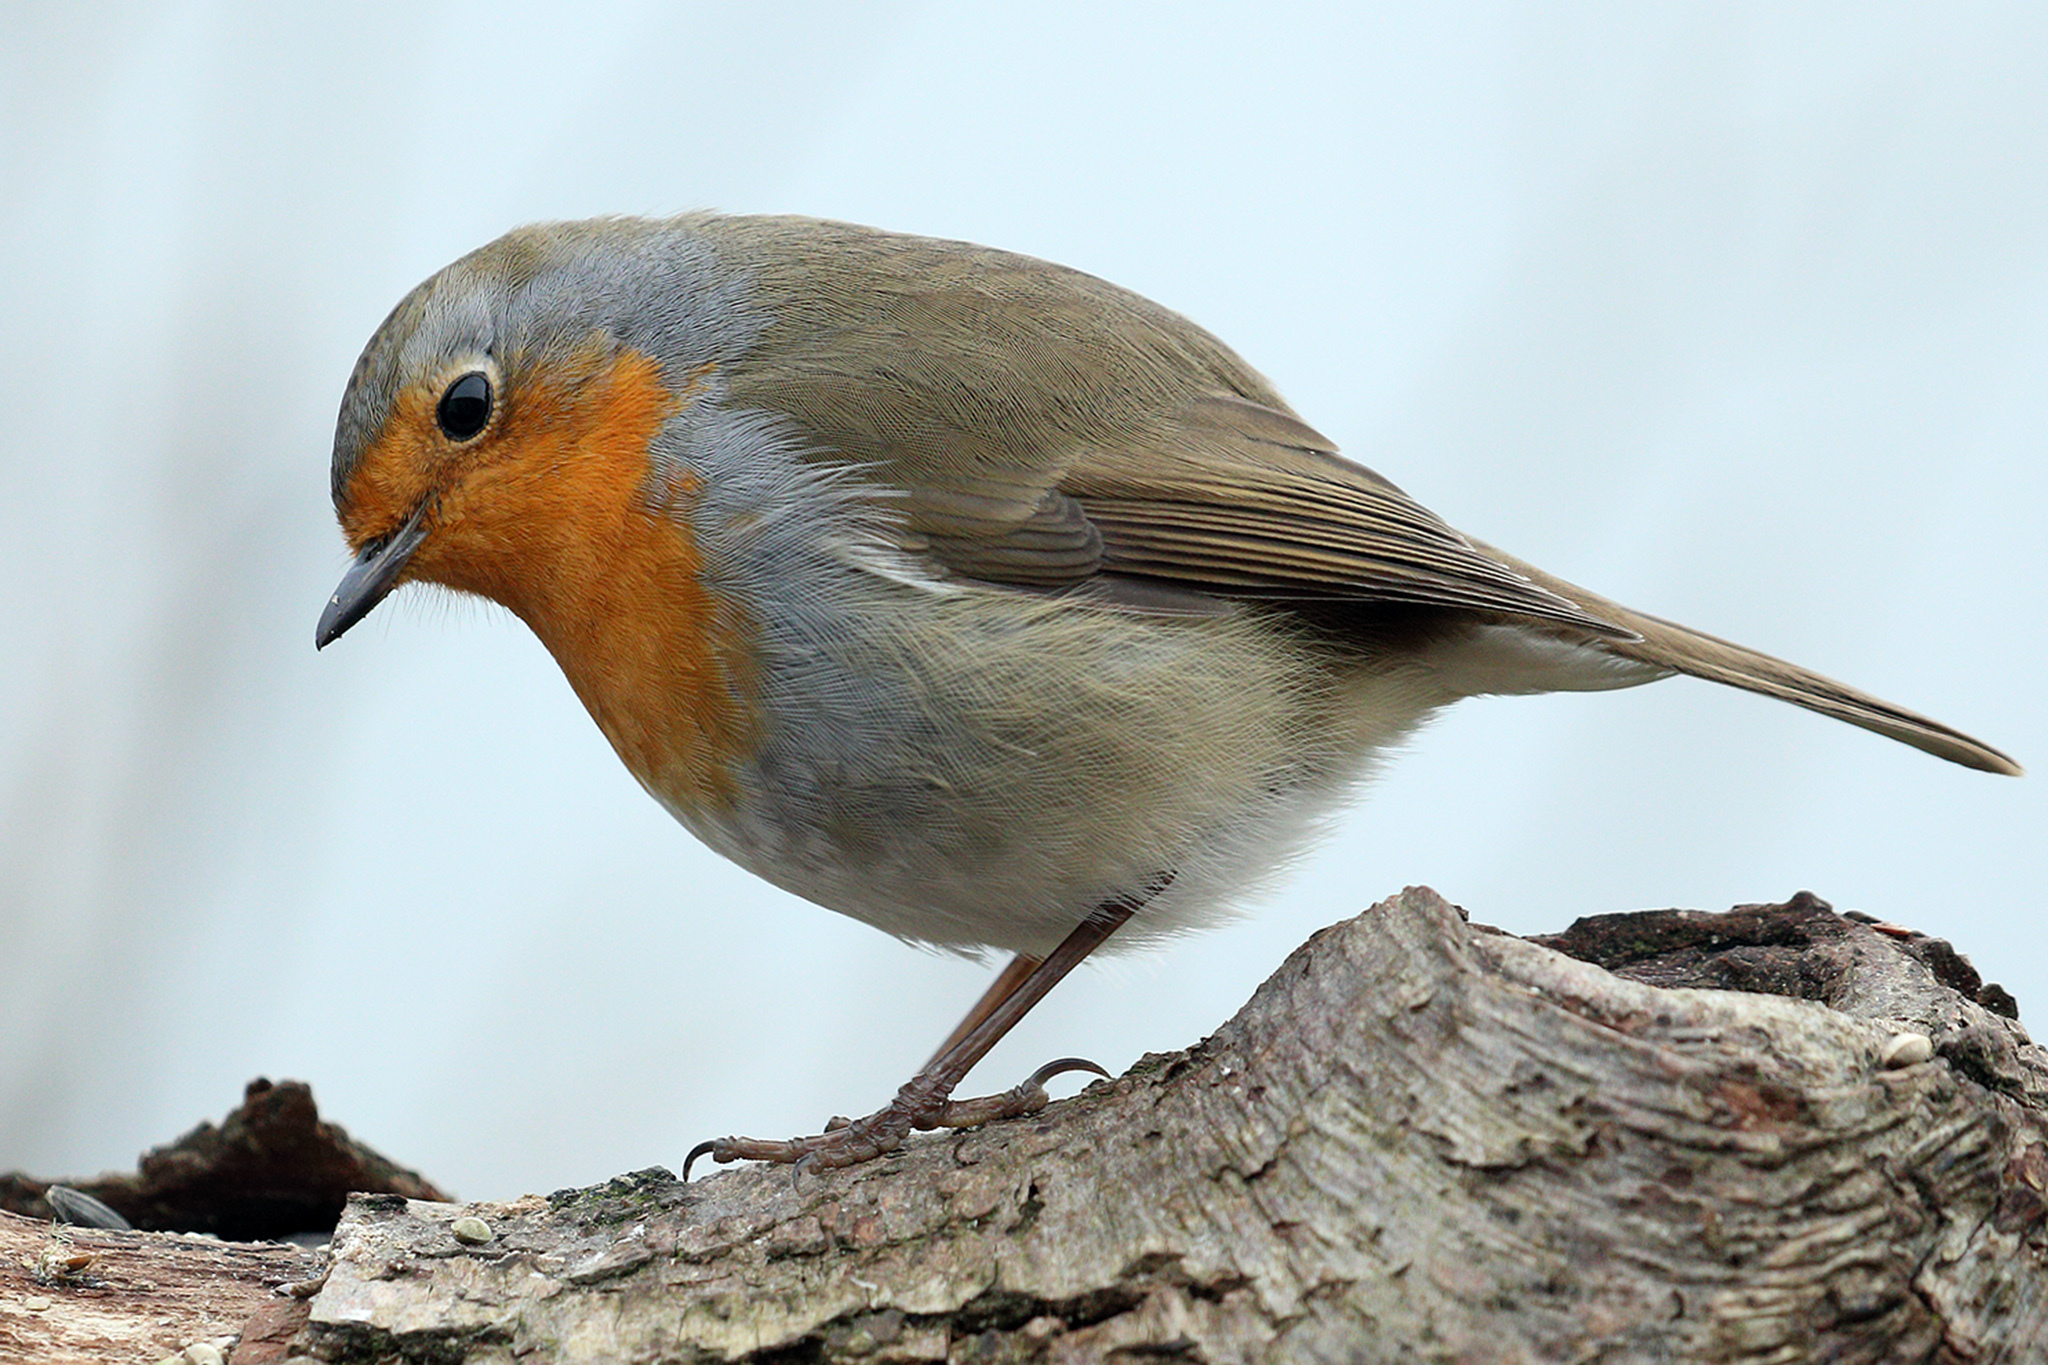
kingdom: Animalia
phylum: Chordata
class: Aves
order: Passeriformes
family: Muscicapidae
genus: Erithacus
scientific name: Erithacus rubecula
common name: European robin
